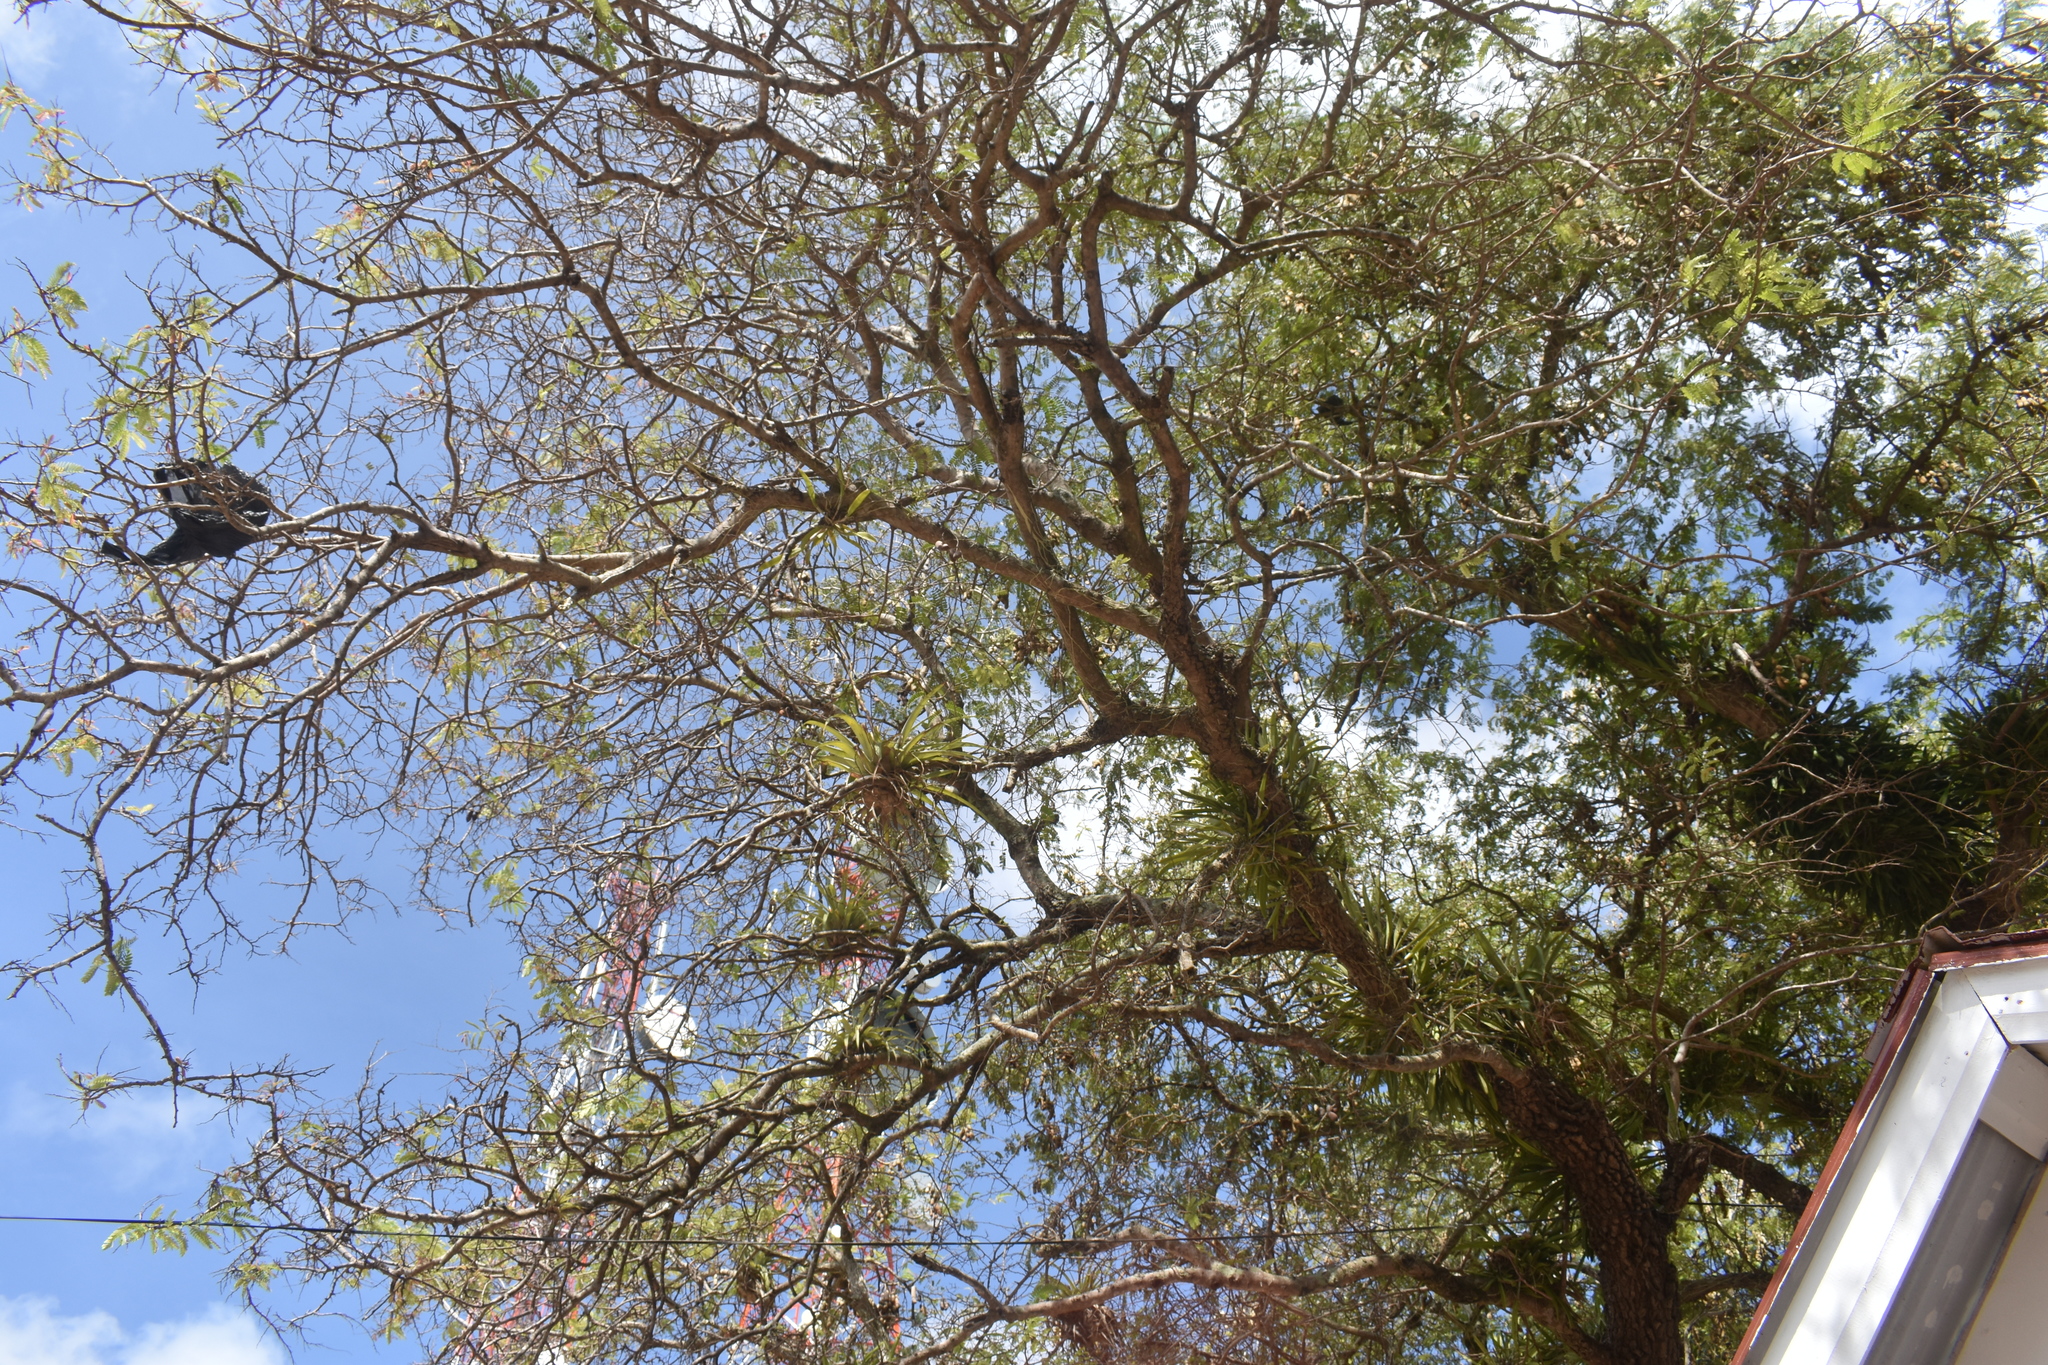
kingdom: Plantae
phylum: Tracheophyta
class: Magnoliopsida
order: Fabales
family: Fabaceae
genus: Tamarindus
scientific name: Tamarindus indica
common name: Tamarind
